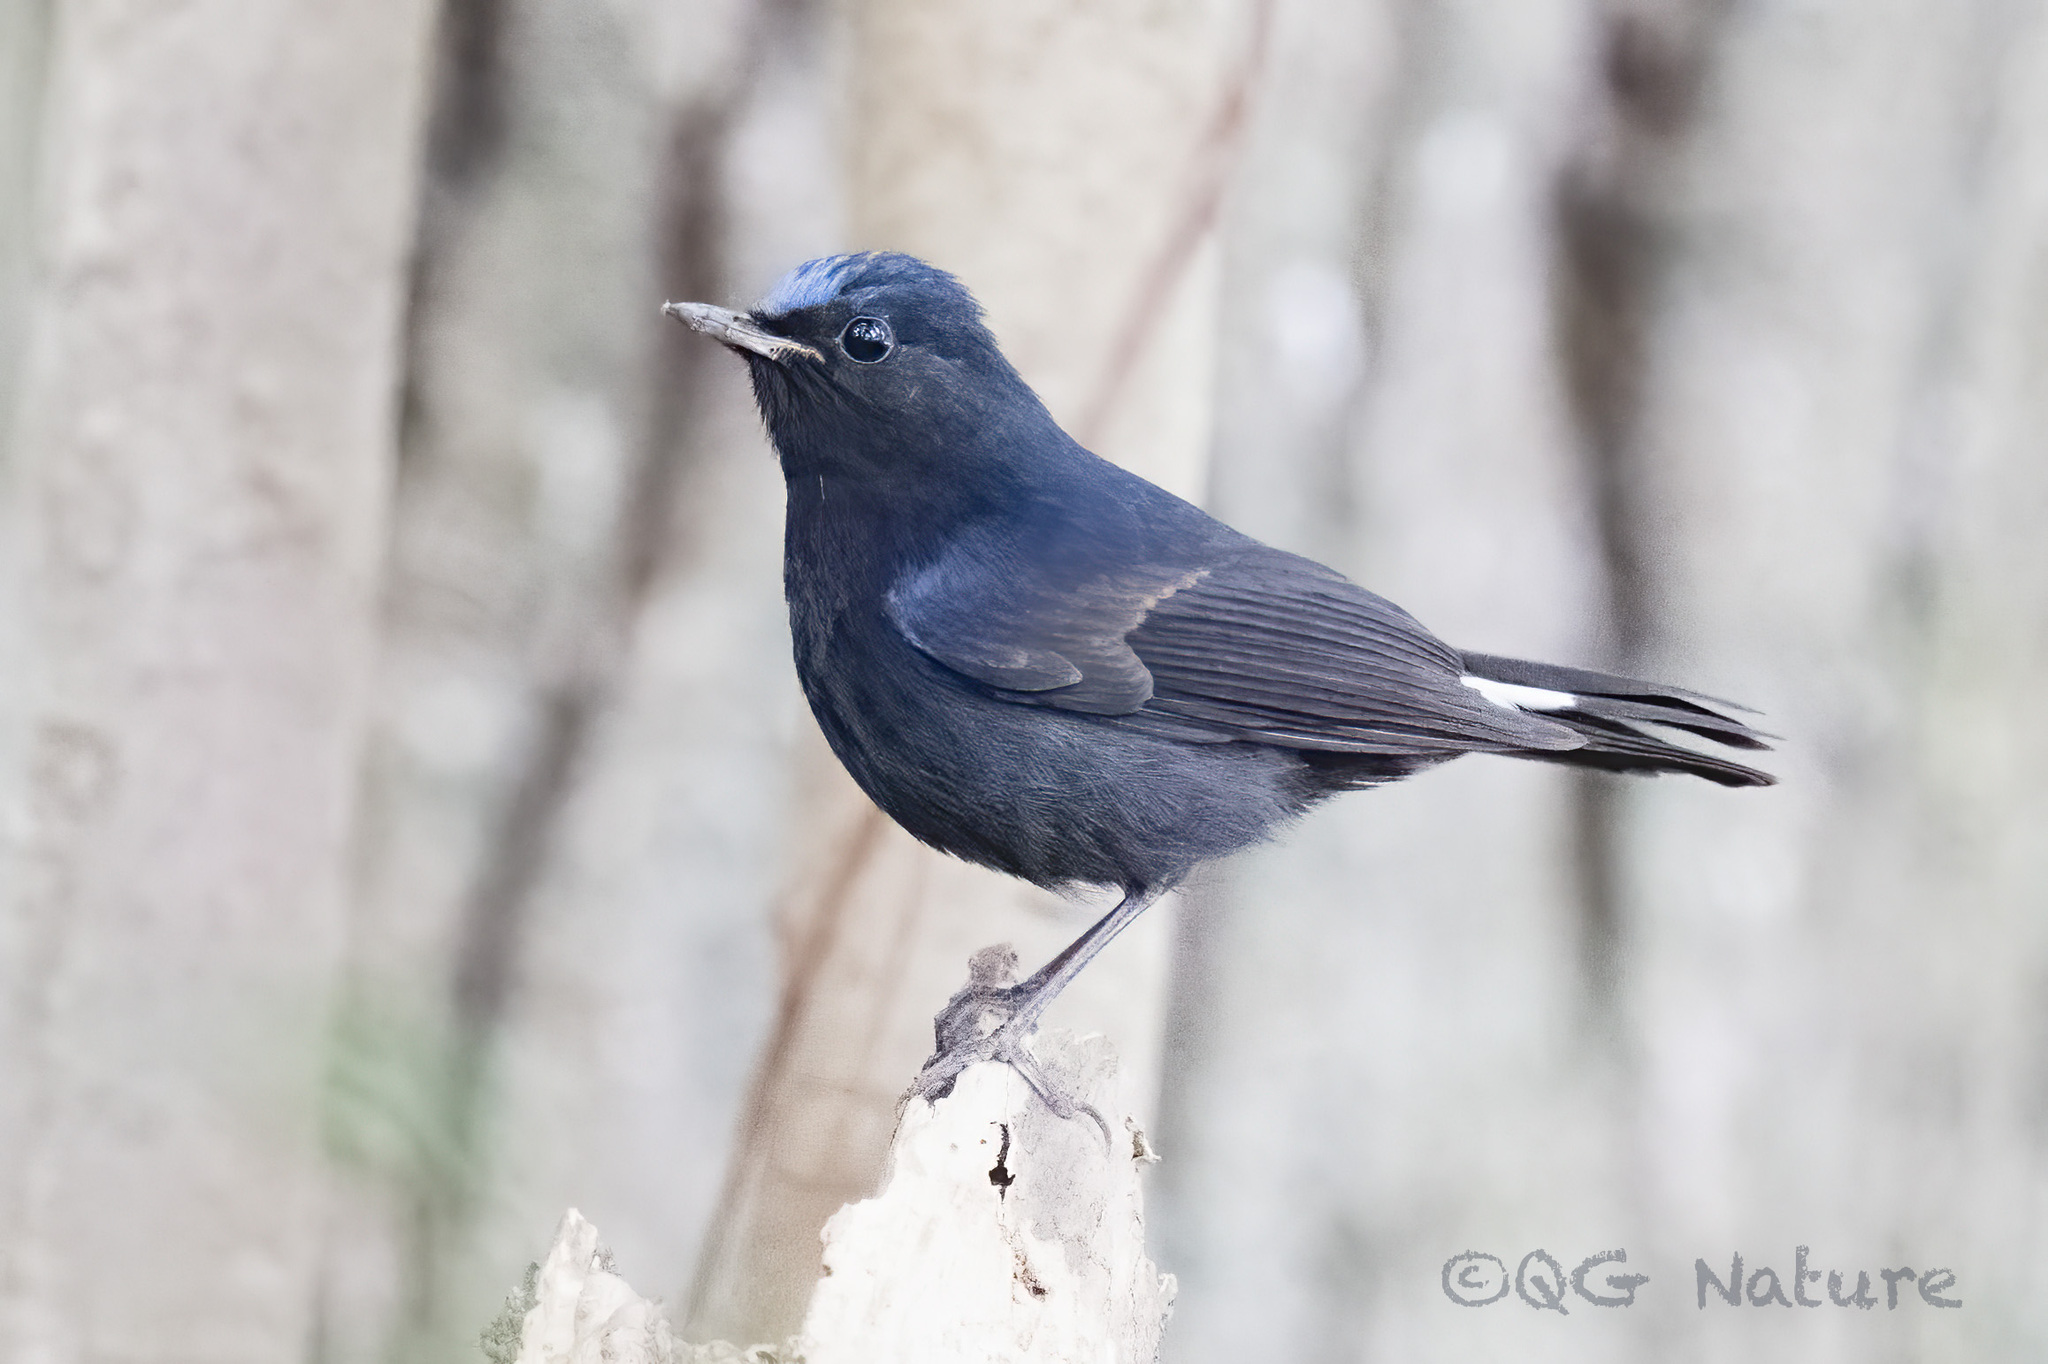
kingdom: Animalia
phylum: Chordata
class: Aves
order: Passeriformes
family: Muscicapidae
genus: Myiomela
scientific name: Myiomela leucura
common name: White-tailed robin
